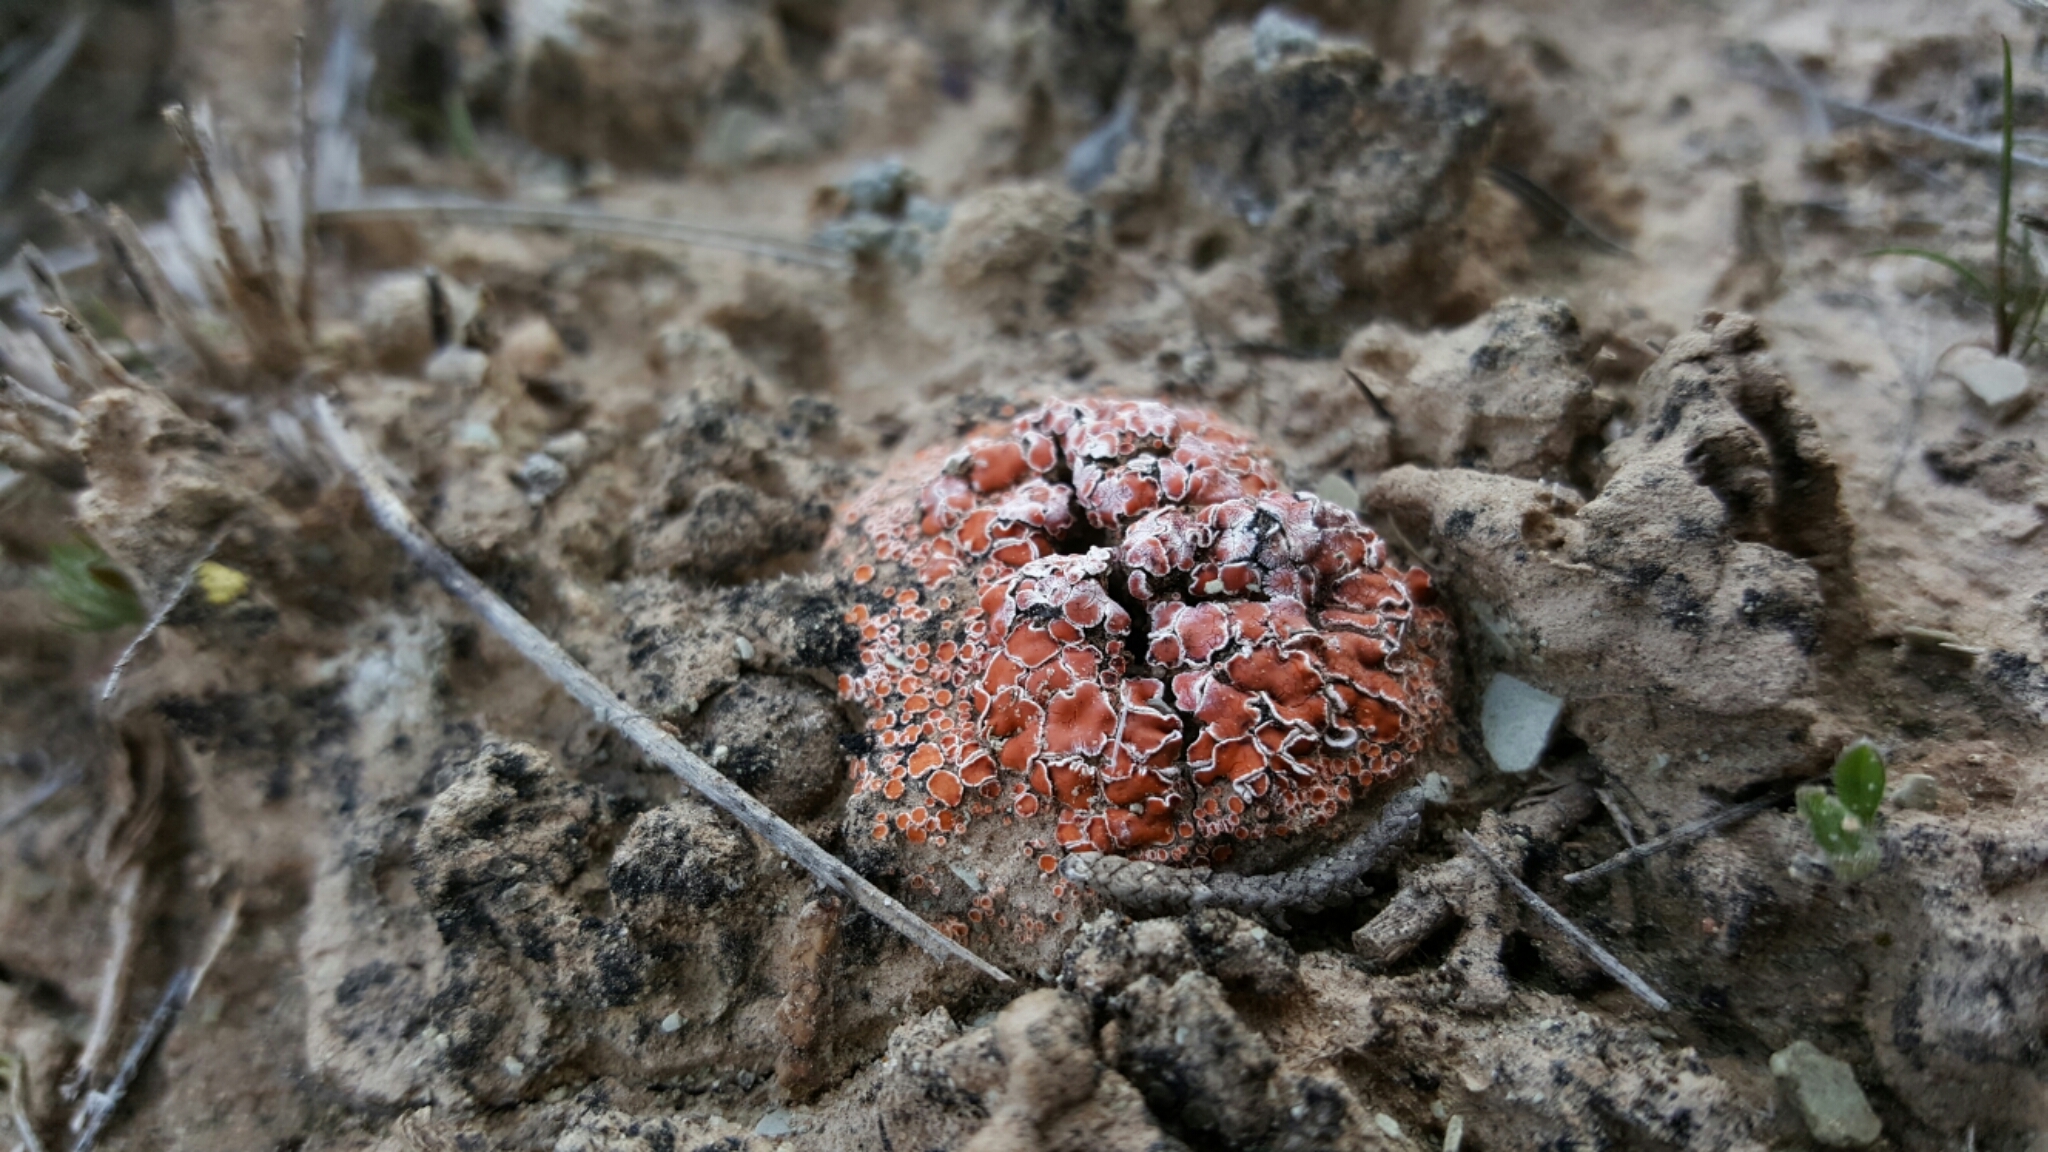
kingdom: Fungi
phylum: Ascomycota
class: Lecanoromycetes
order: Lecanorales
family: Psoraceae
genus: Psora
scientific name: Psora decipiens
